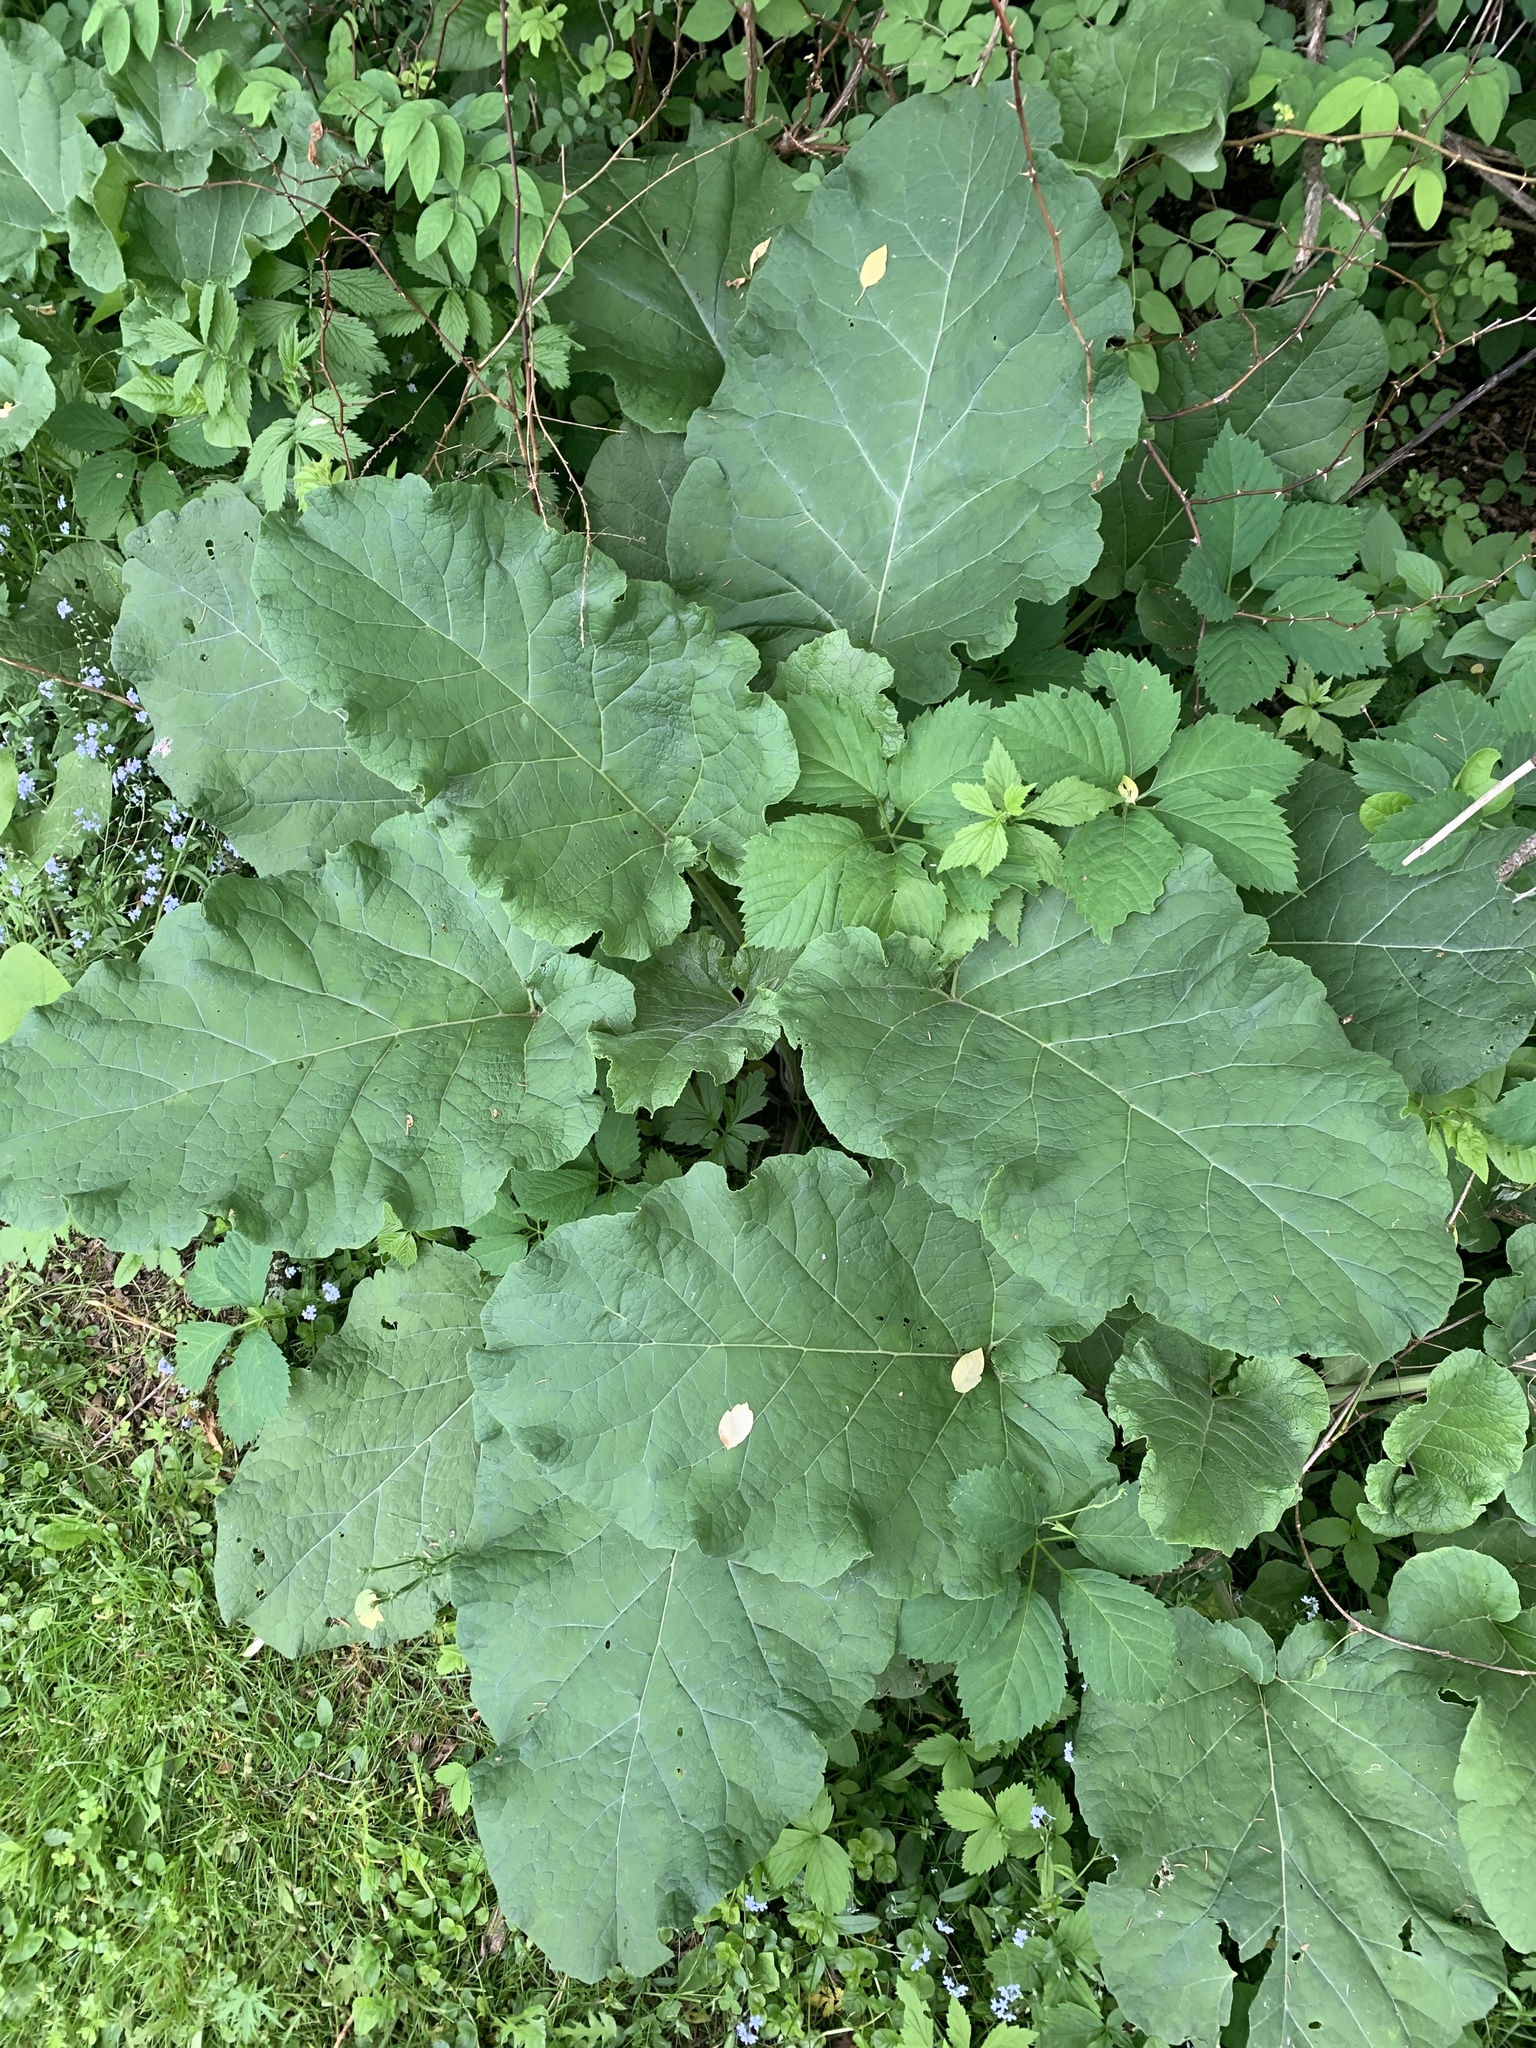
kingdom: Plantae
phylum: Tracheophyta
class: Magnoliopsida
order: Asterales
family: Asteraceae
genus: Arctium
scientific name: Arctium lappa
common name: Greater burdock
